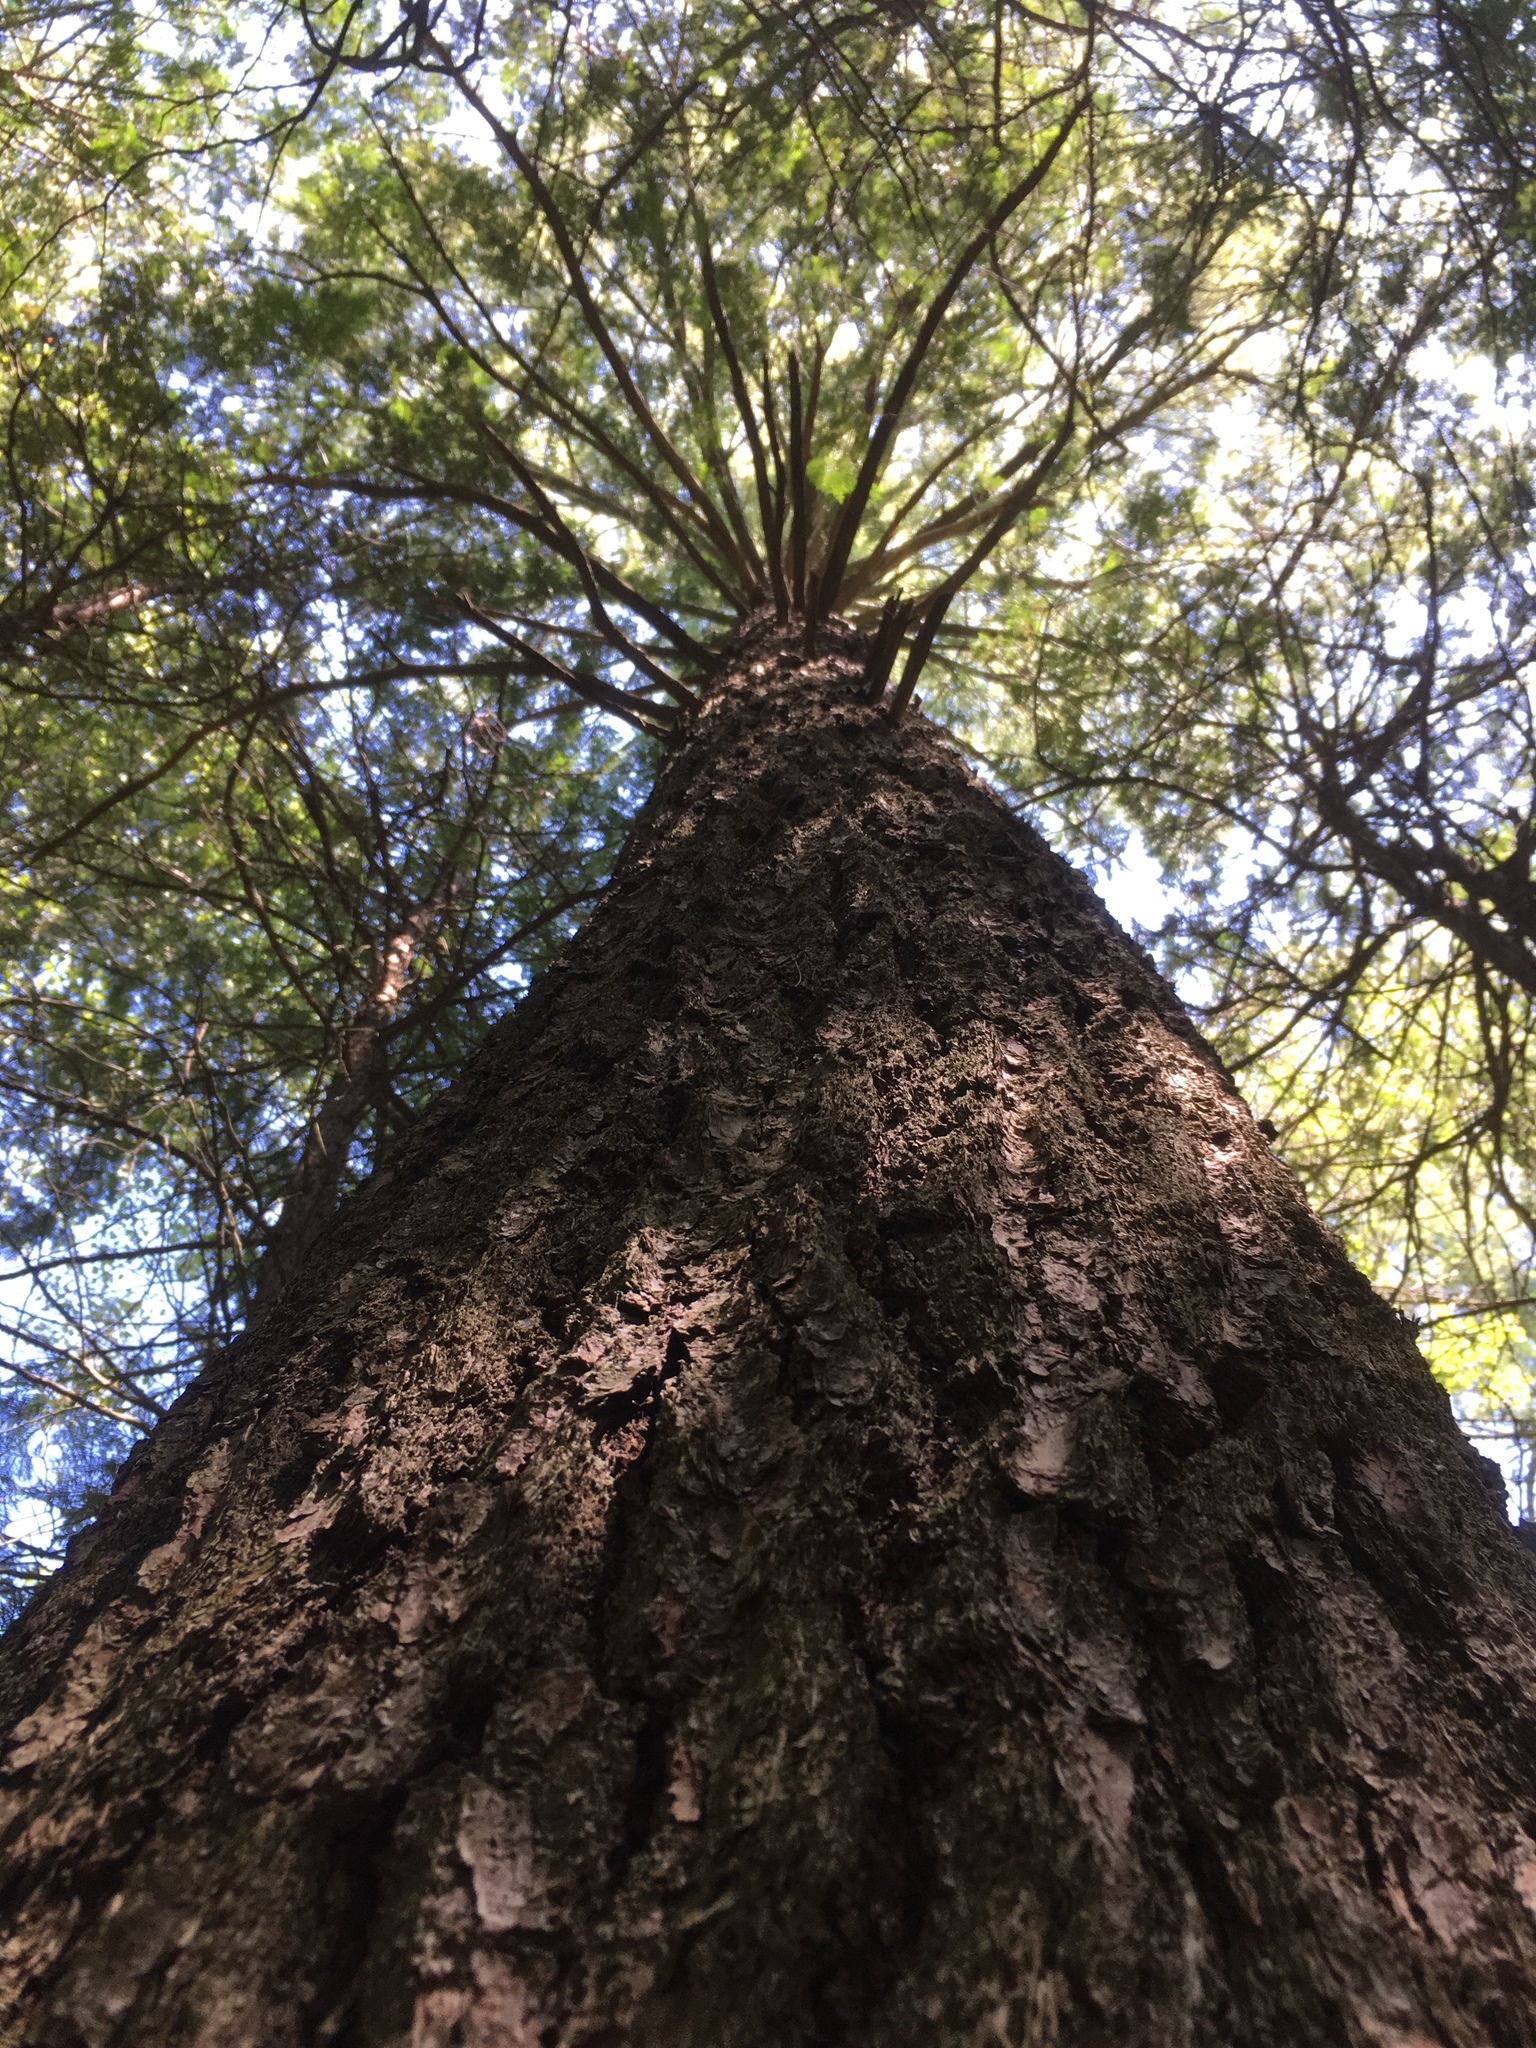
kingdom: Plantae
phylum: Tracheophyta
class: Pinopsida
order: Pinales
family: Pinaceae
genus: Pinus
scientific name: Pinus strobus
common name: Weymouth pine
